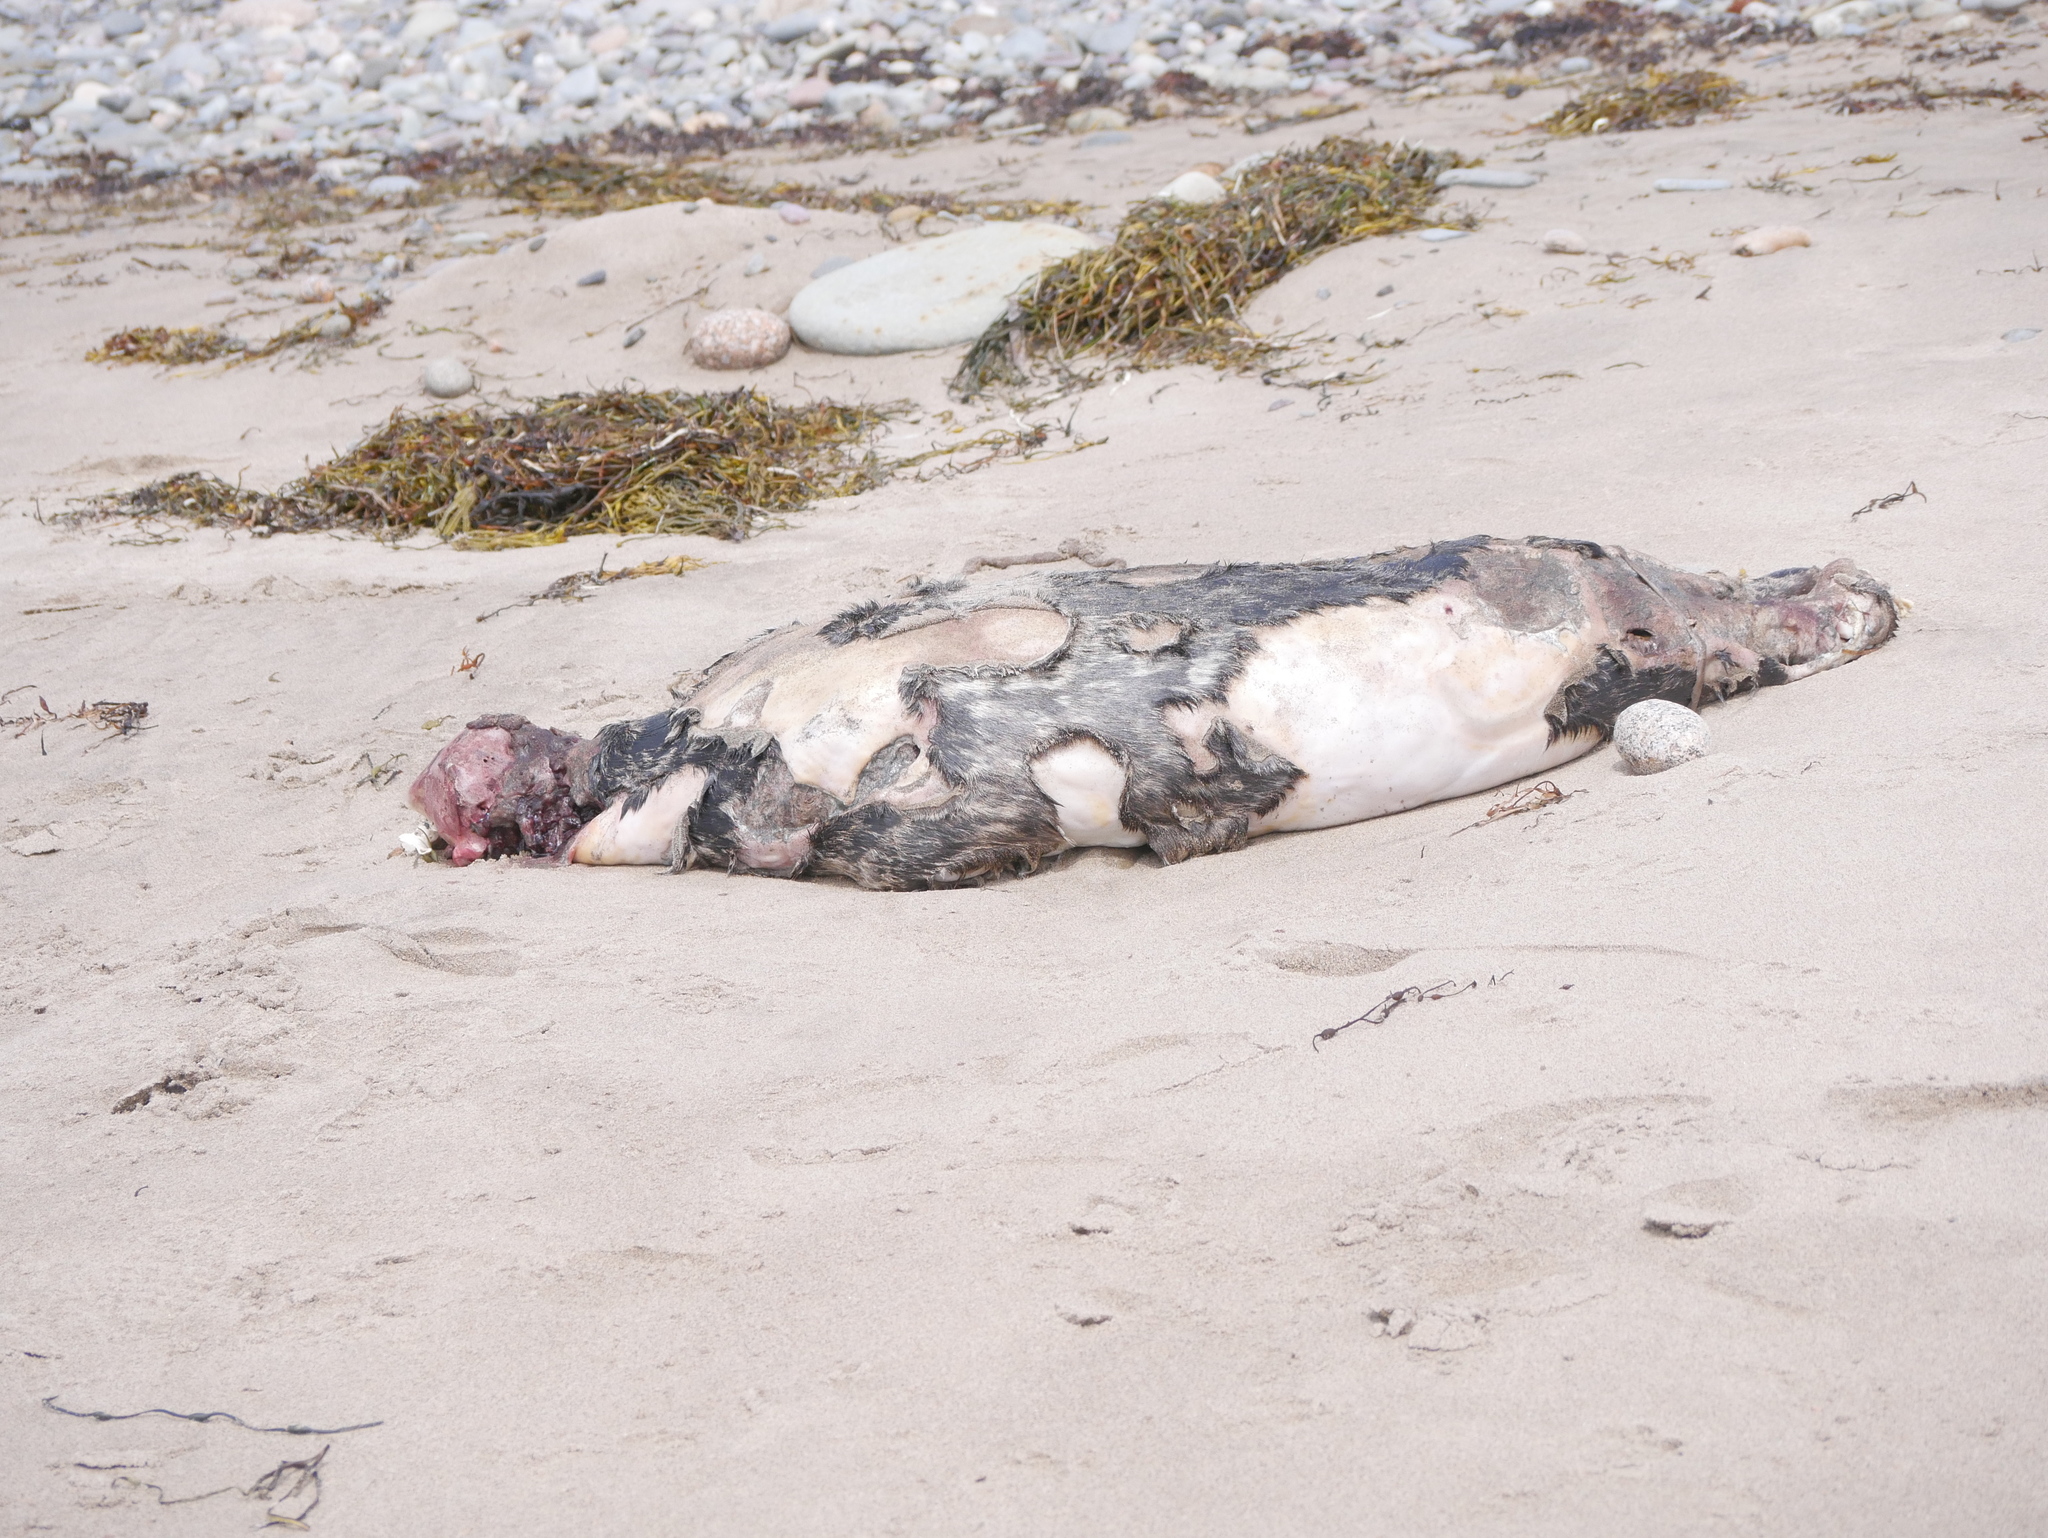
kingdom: Animalia
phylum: Chordata
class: Mammalia
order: Carnivora
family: Phocidae
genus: Phoca
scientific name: Phoca vitulina
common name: Harbor seal
